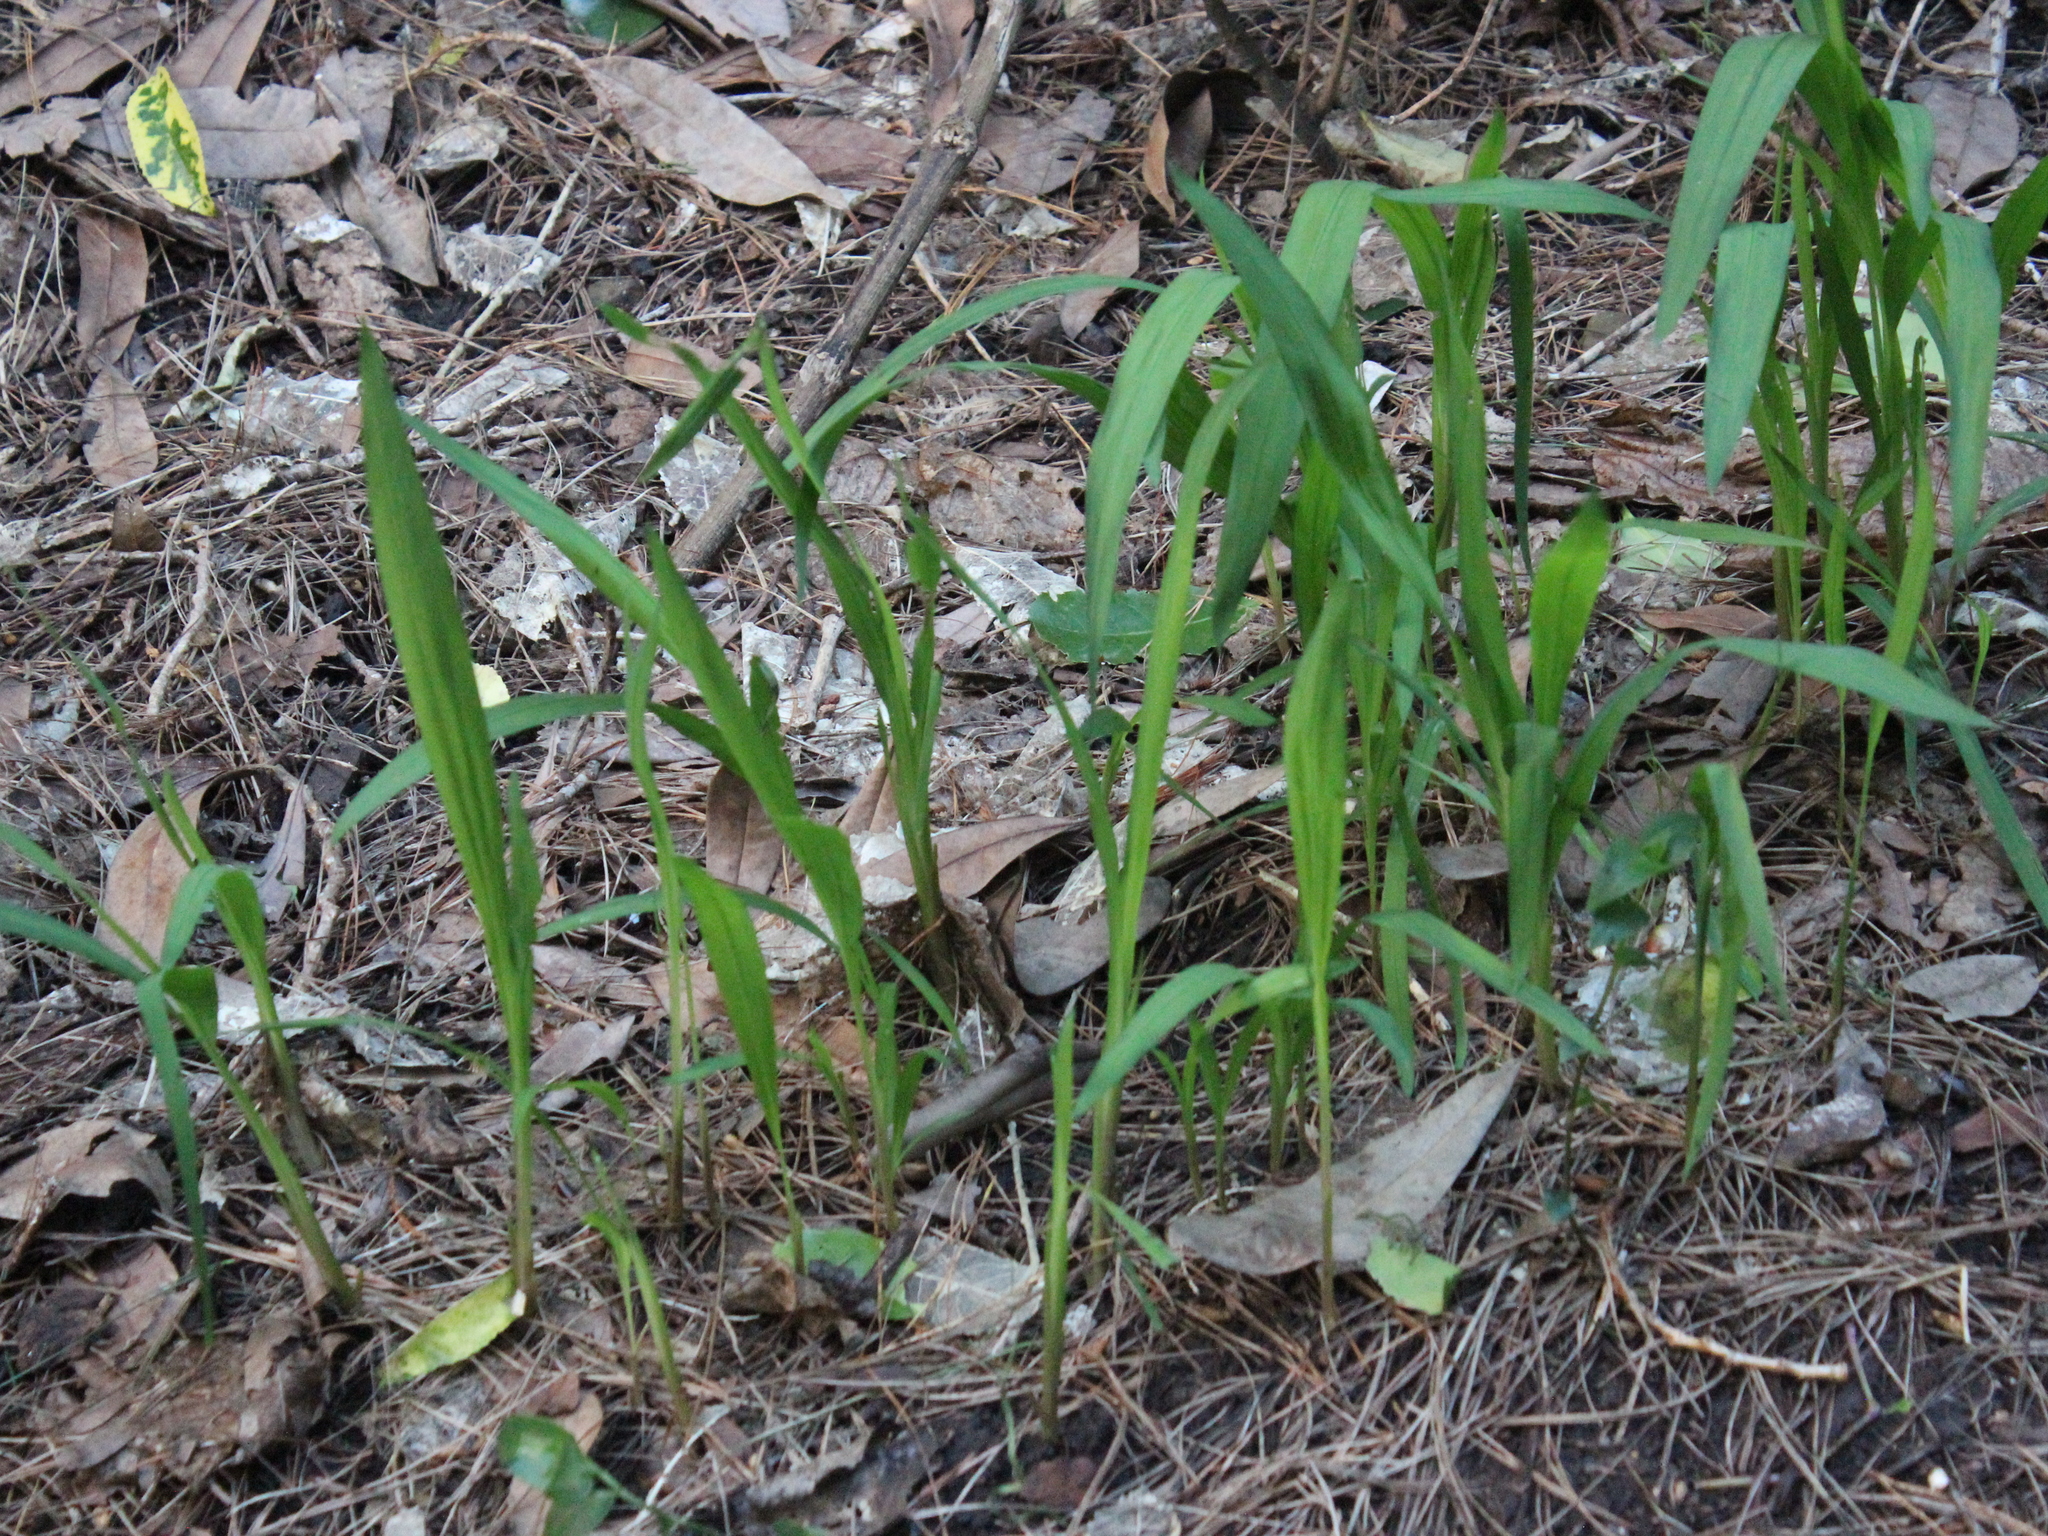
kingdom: Plantae
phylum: Tracheophyta
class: Liliopsida
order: Asparagales
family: Iridaceae
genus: Crocosmia
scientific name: Crocosmia crocosmiiflora
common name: Montbretia
